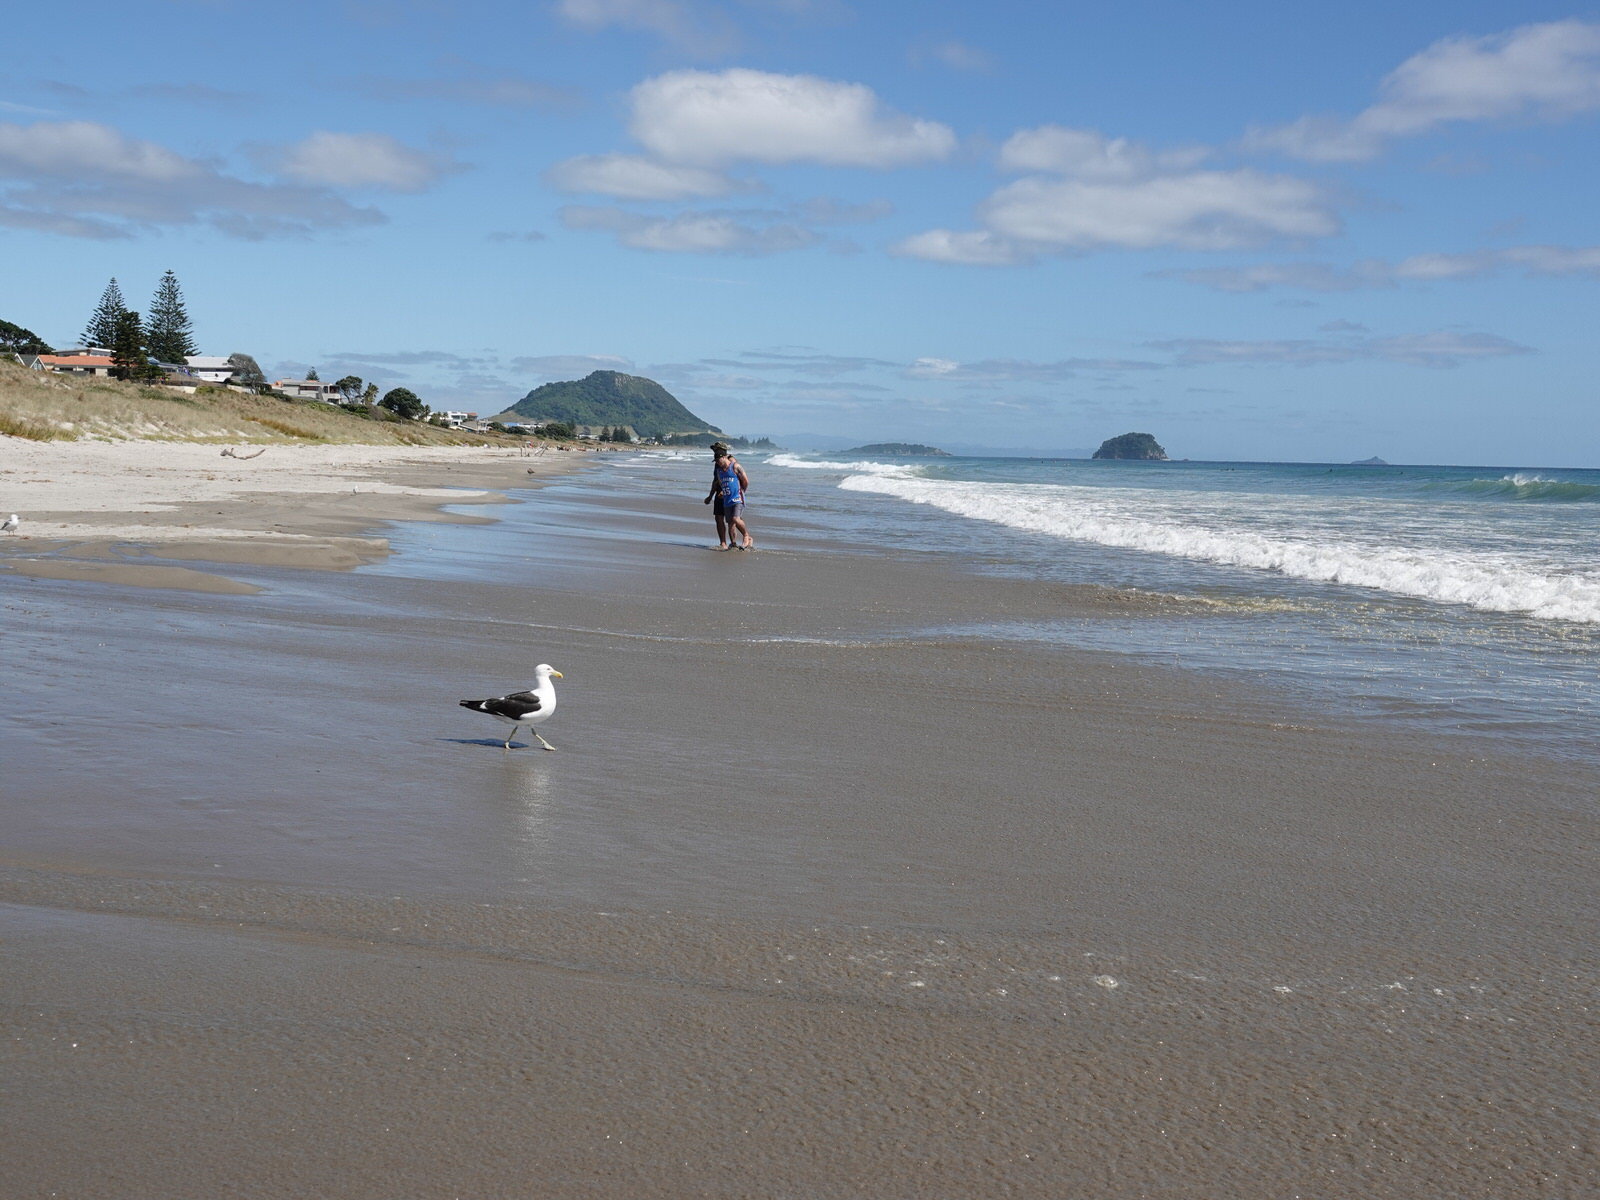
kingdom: Animalia
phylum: Chordata
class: Aves
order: Charadriiformes
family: Laridae
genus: Larus
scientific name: Larus dominicanus
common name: Kelp gull
